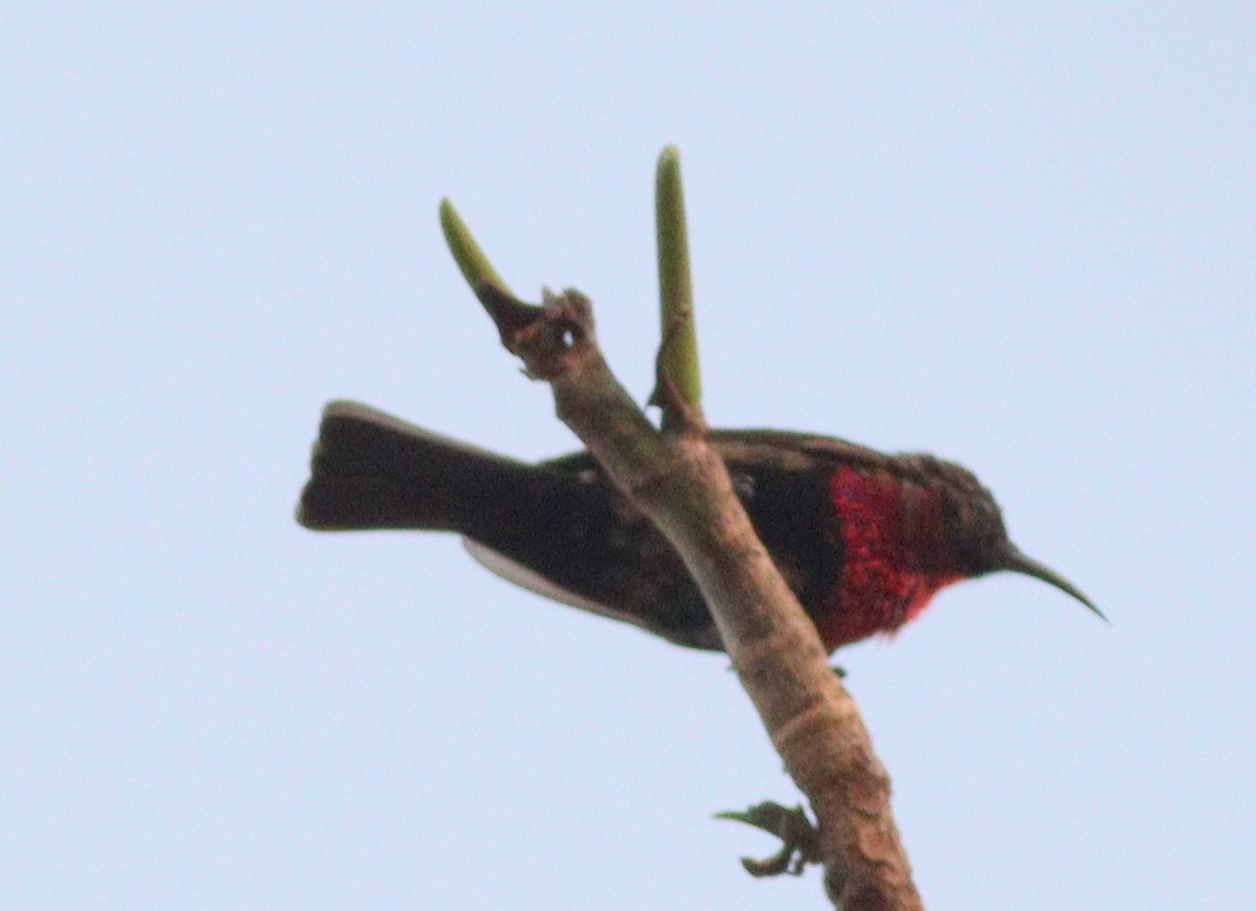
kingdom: Animalia
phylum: Chordata
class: Aves
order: Passeriformes
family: Nectariniidae
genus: Chalcomitra
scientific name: Chalcomitra senegalensis
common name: Scarlet-chested sunbird
